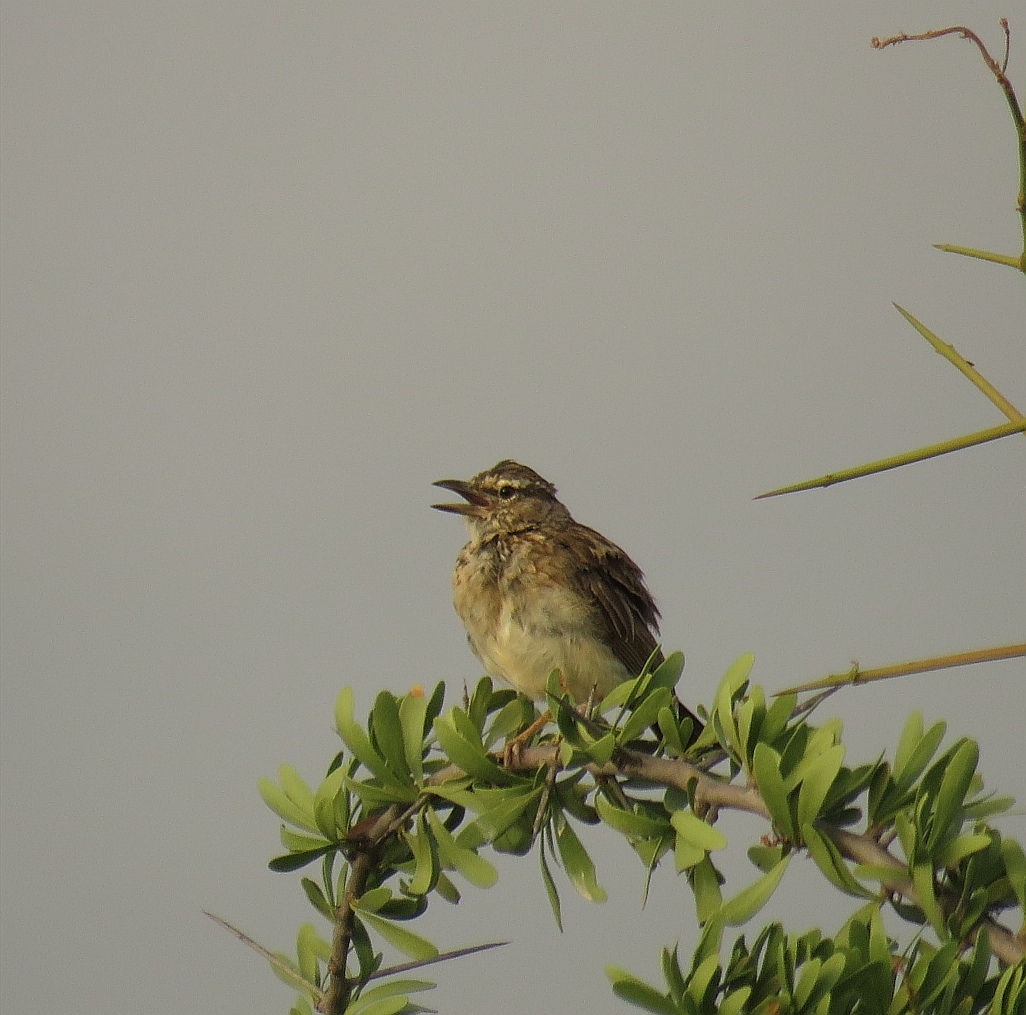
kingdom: Animalia
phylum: Chordata
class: Aves
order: Passeriformes
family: Alaudidae
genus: Calendulauda
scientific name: Calendulauda sabota
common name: Sabota lark
